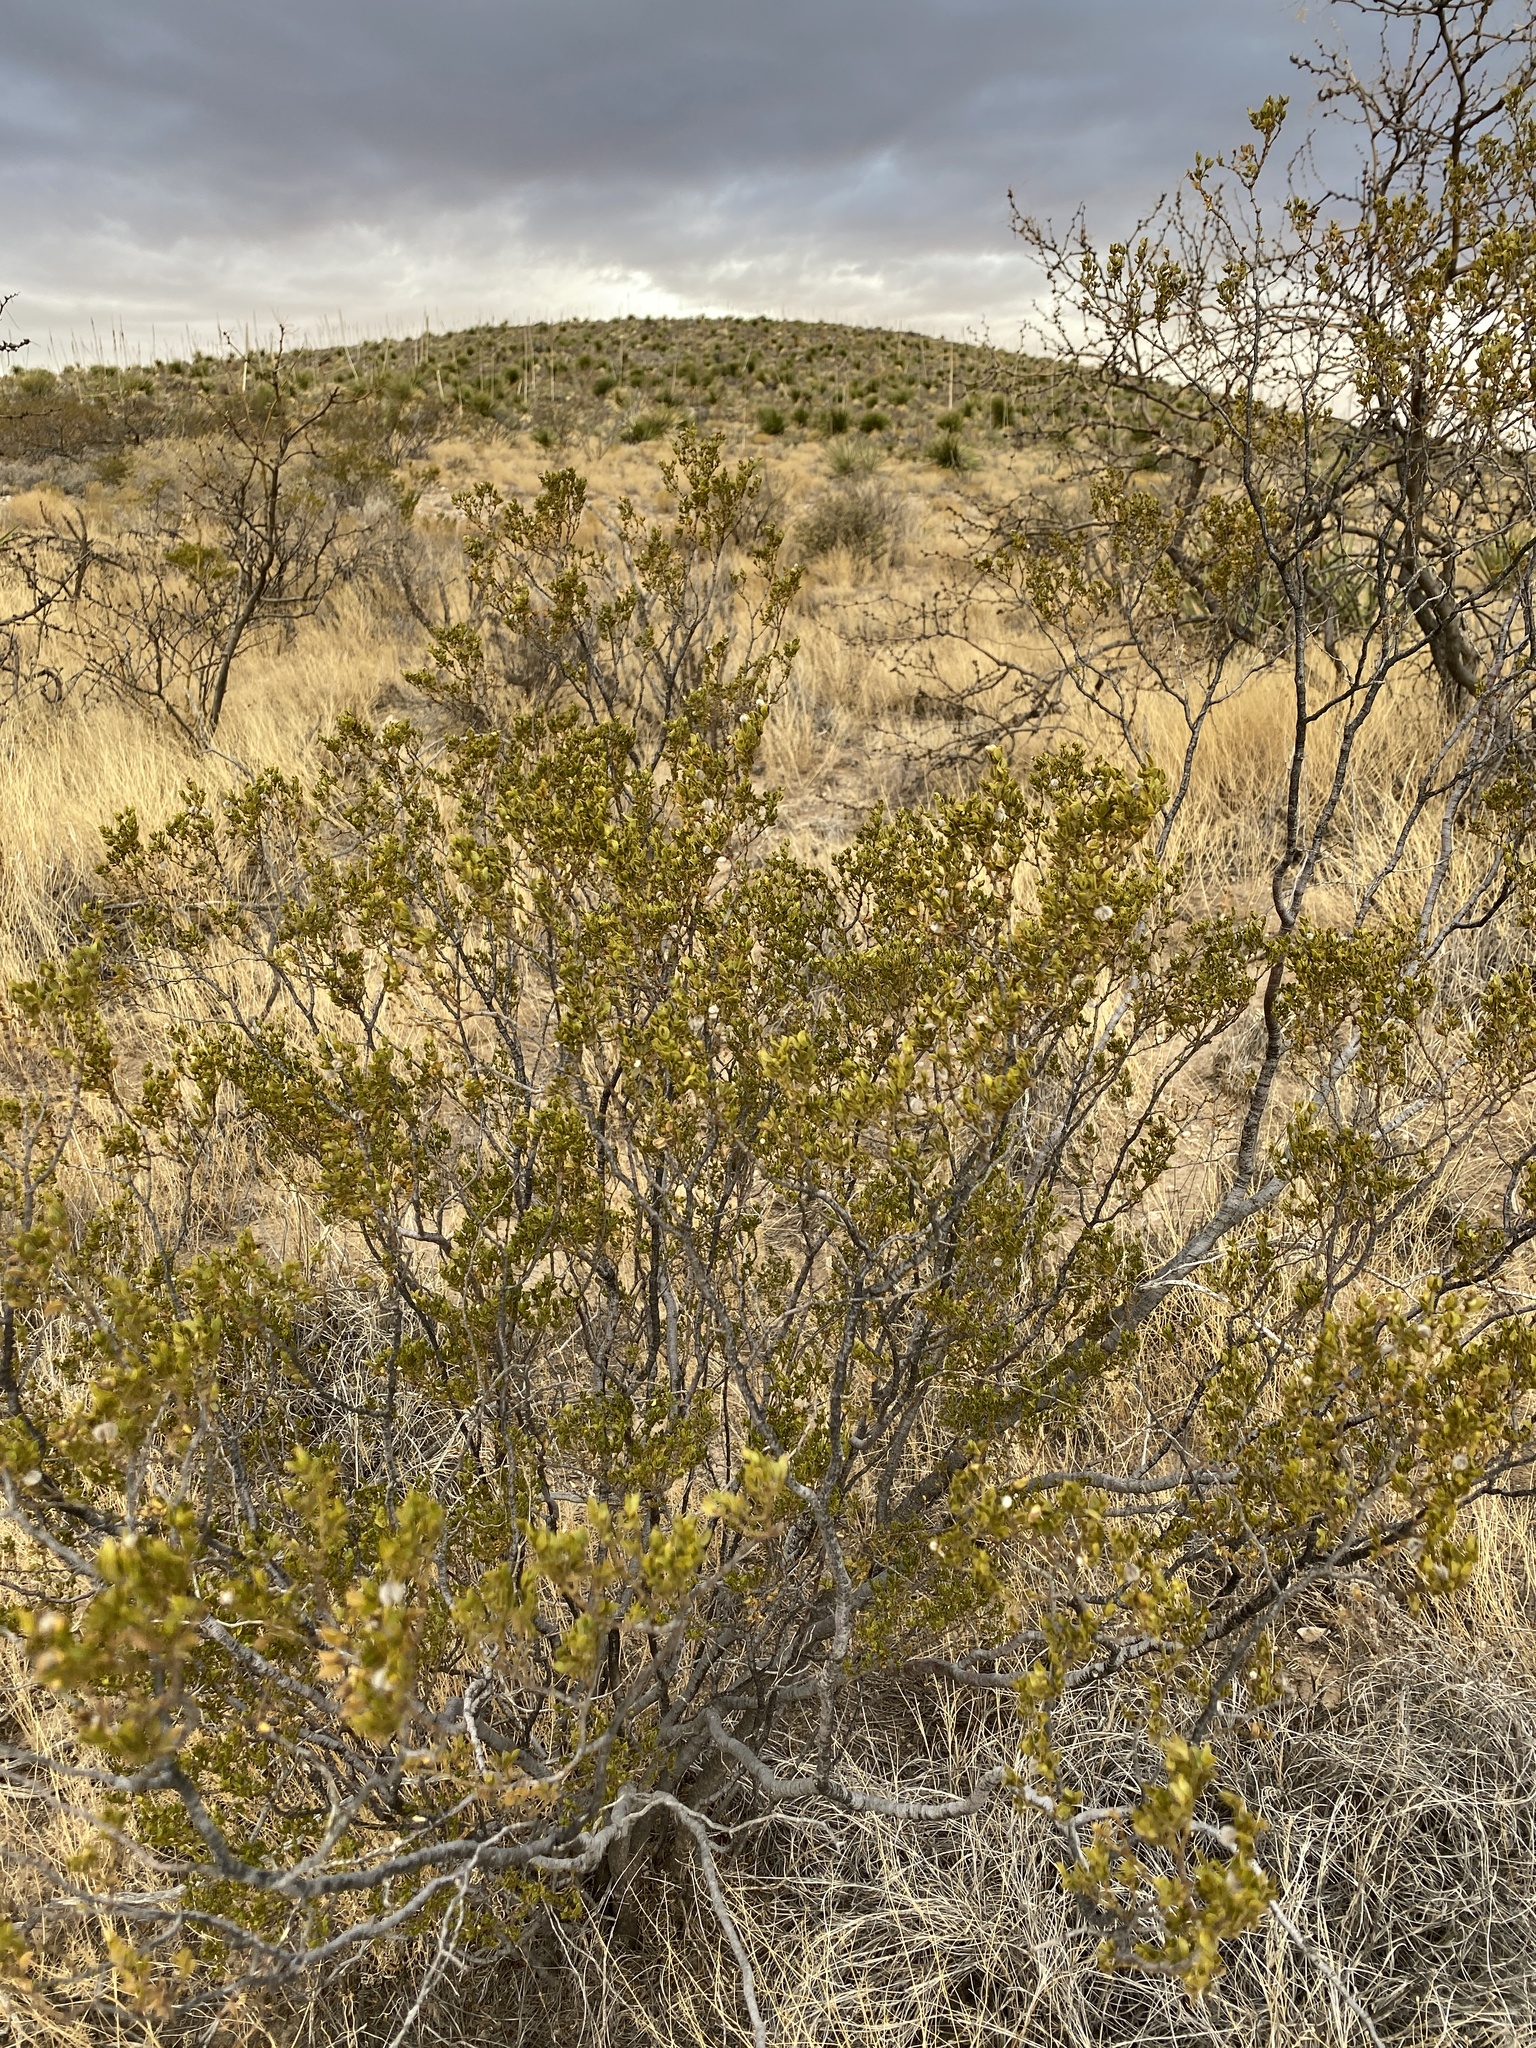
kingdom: Plantae
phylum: Tracheophyta
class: Magnoliopsida
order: Zygophyllales
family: Zygophyllaceae
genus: Larrea
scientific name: Larrea tridentata
